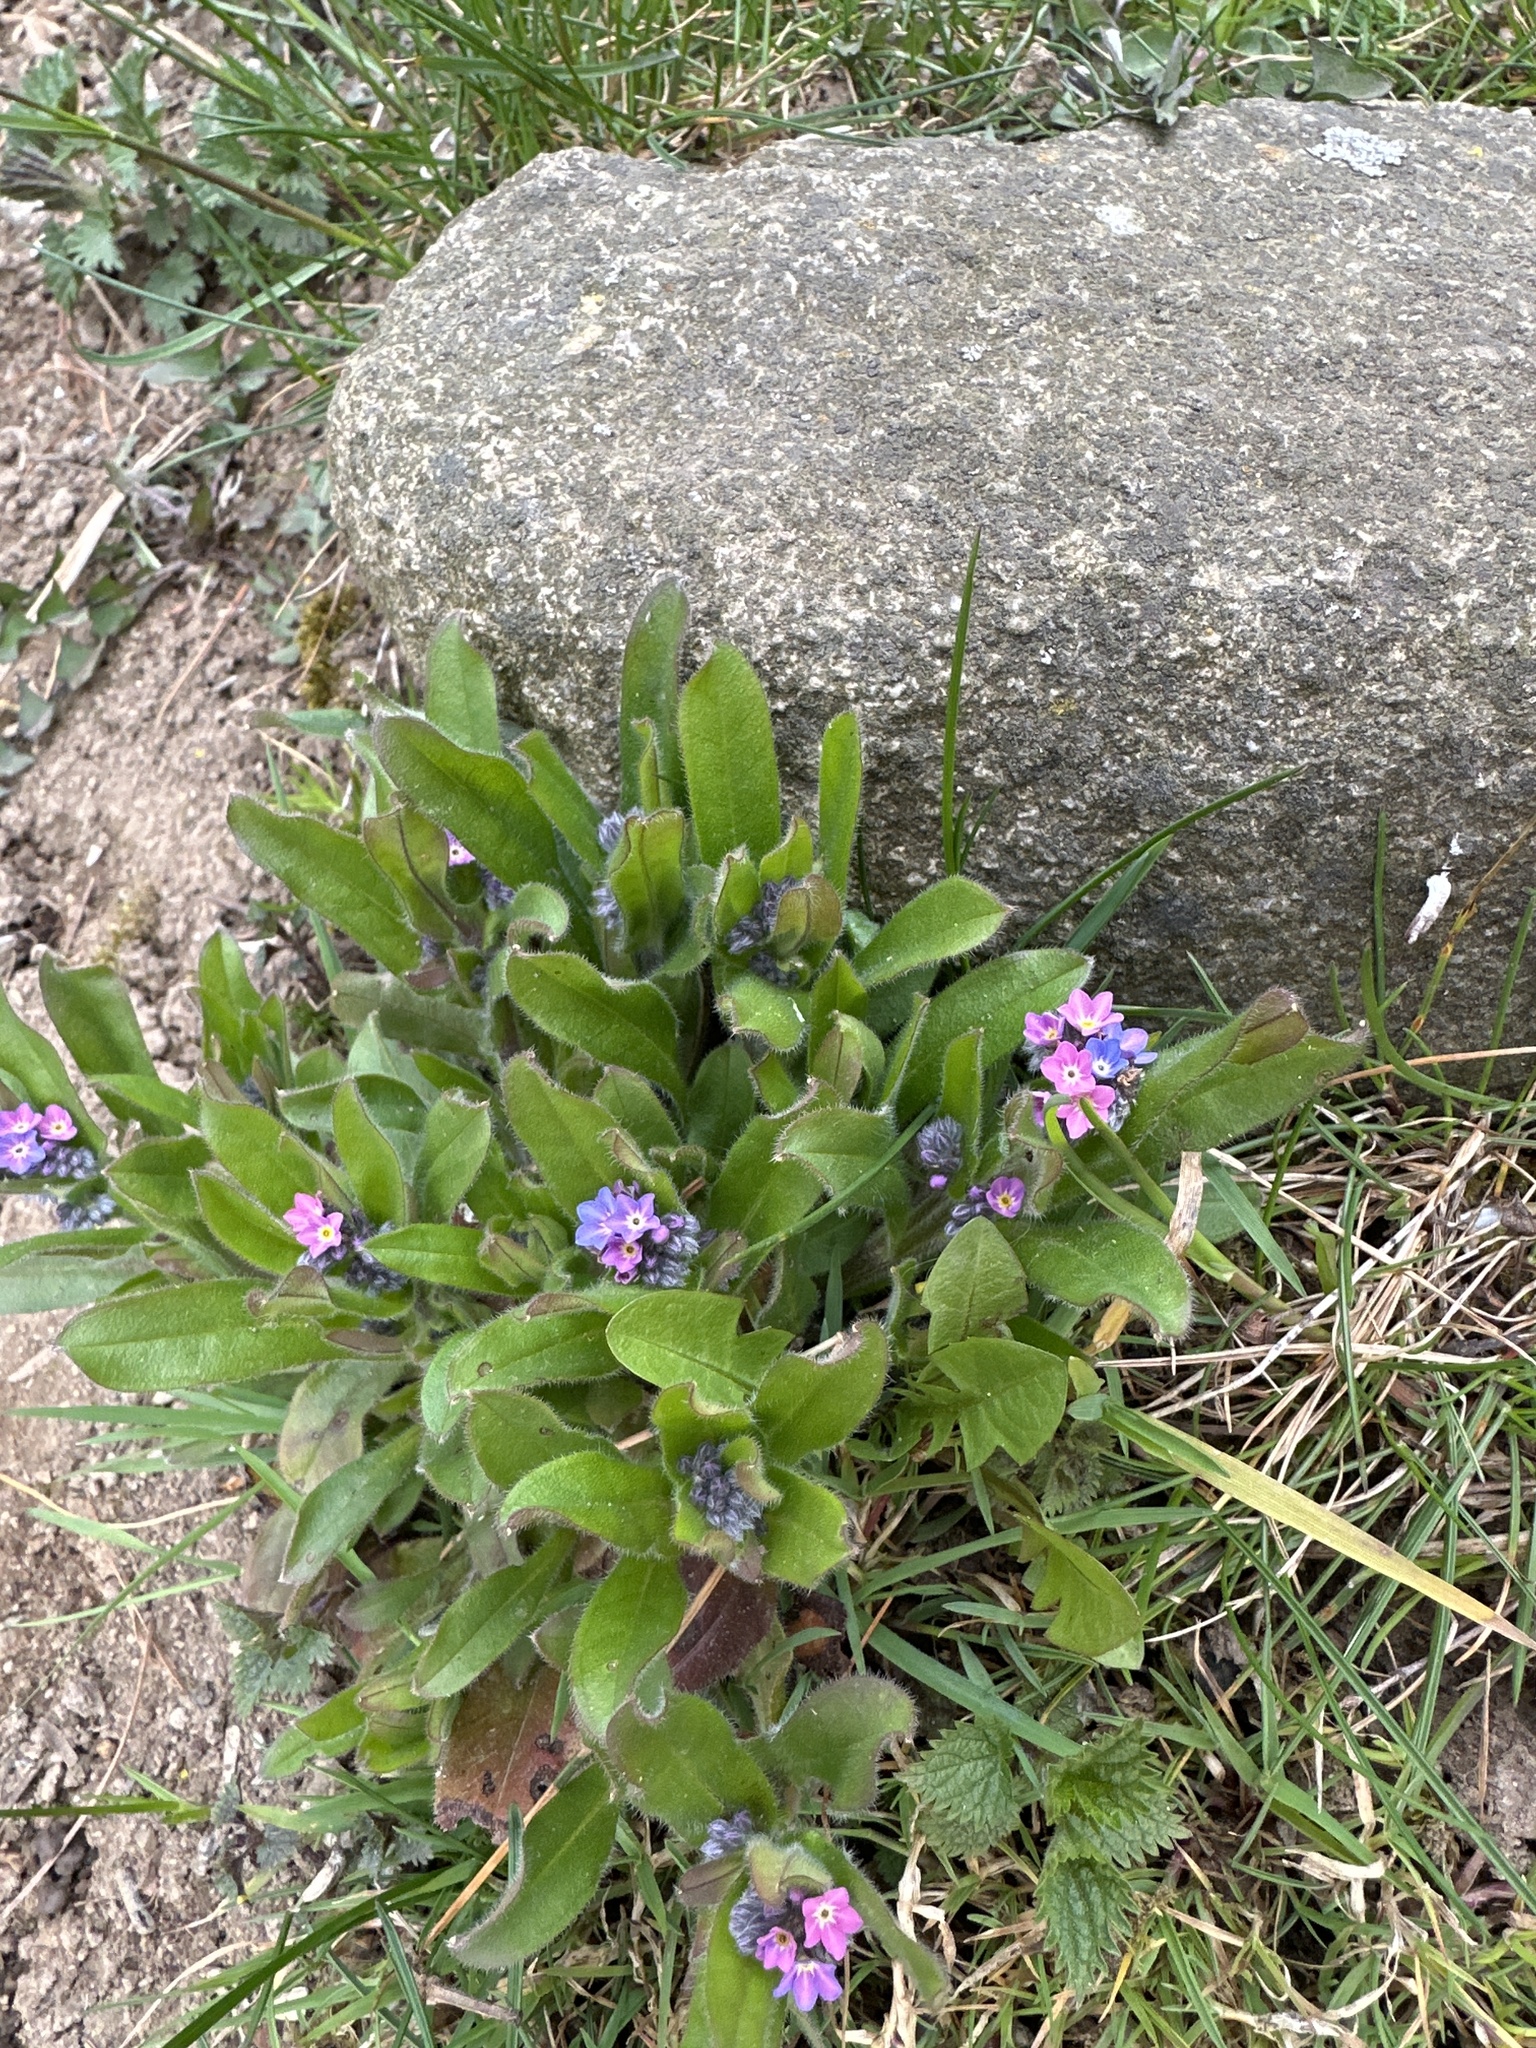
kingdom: Plantae
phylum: Tracheophyta
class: Magnoliopsida
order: Boraginales
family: Boraginaceae
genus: Myosotis
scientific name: Myosotis sylvatica
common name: Wood forget-me-not
